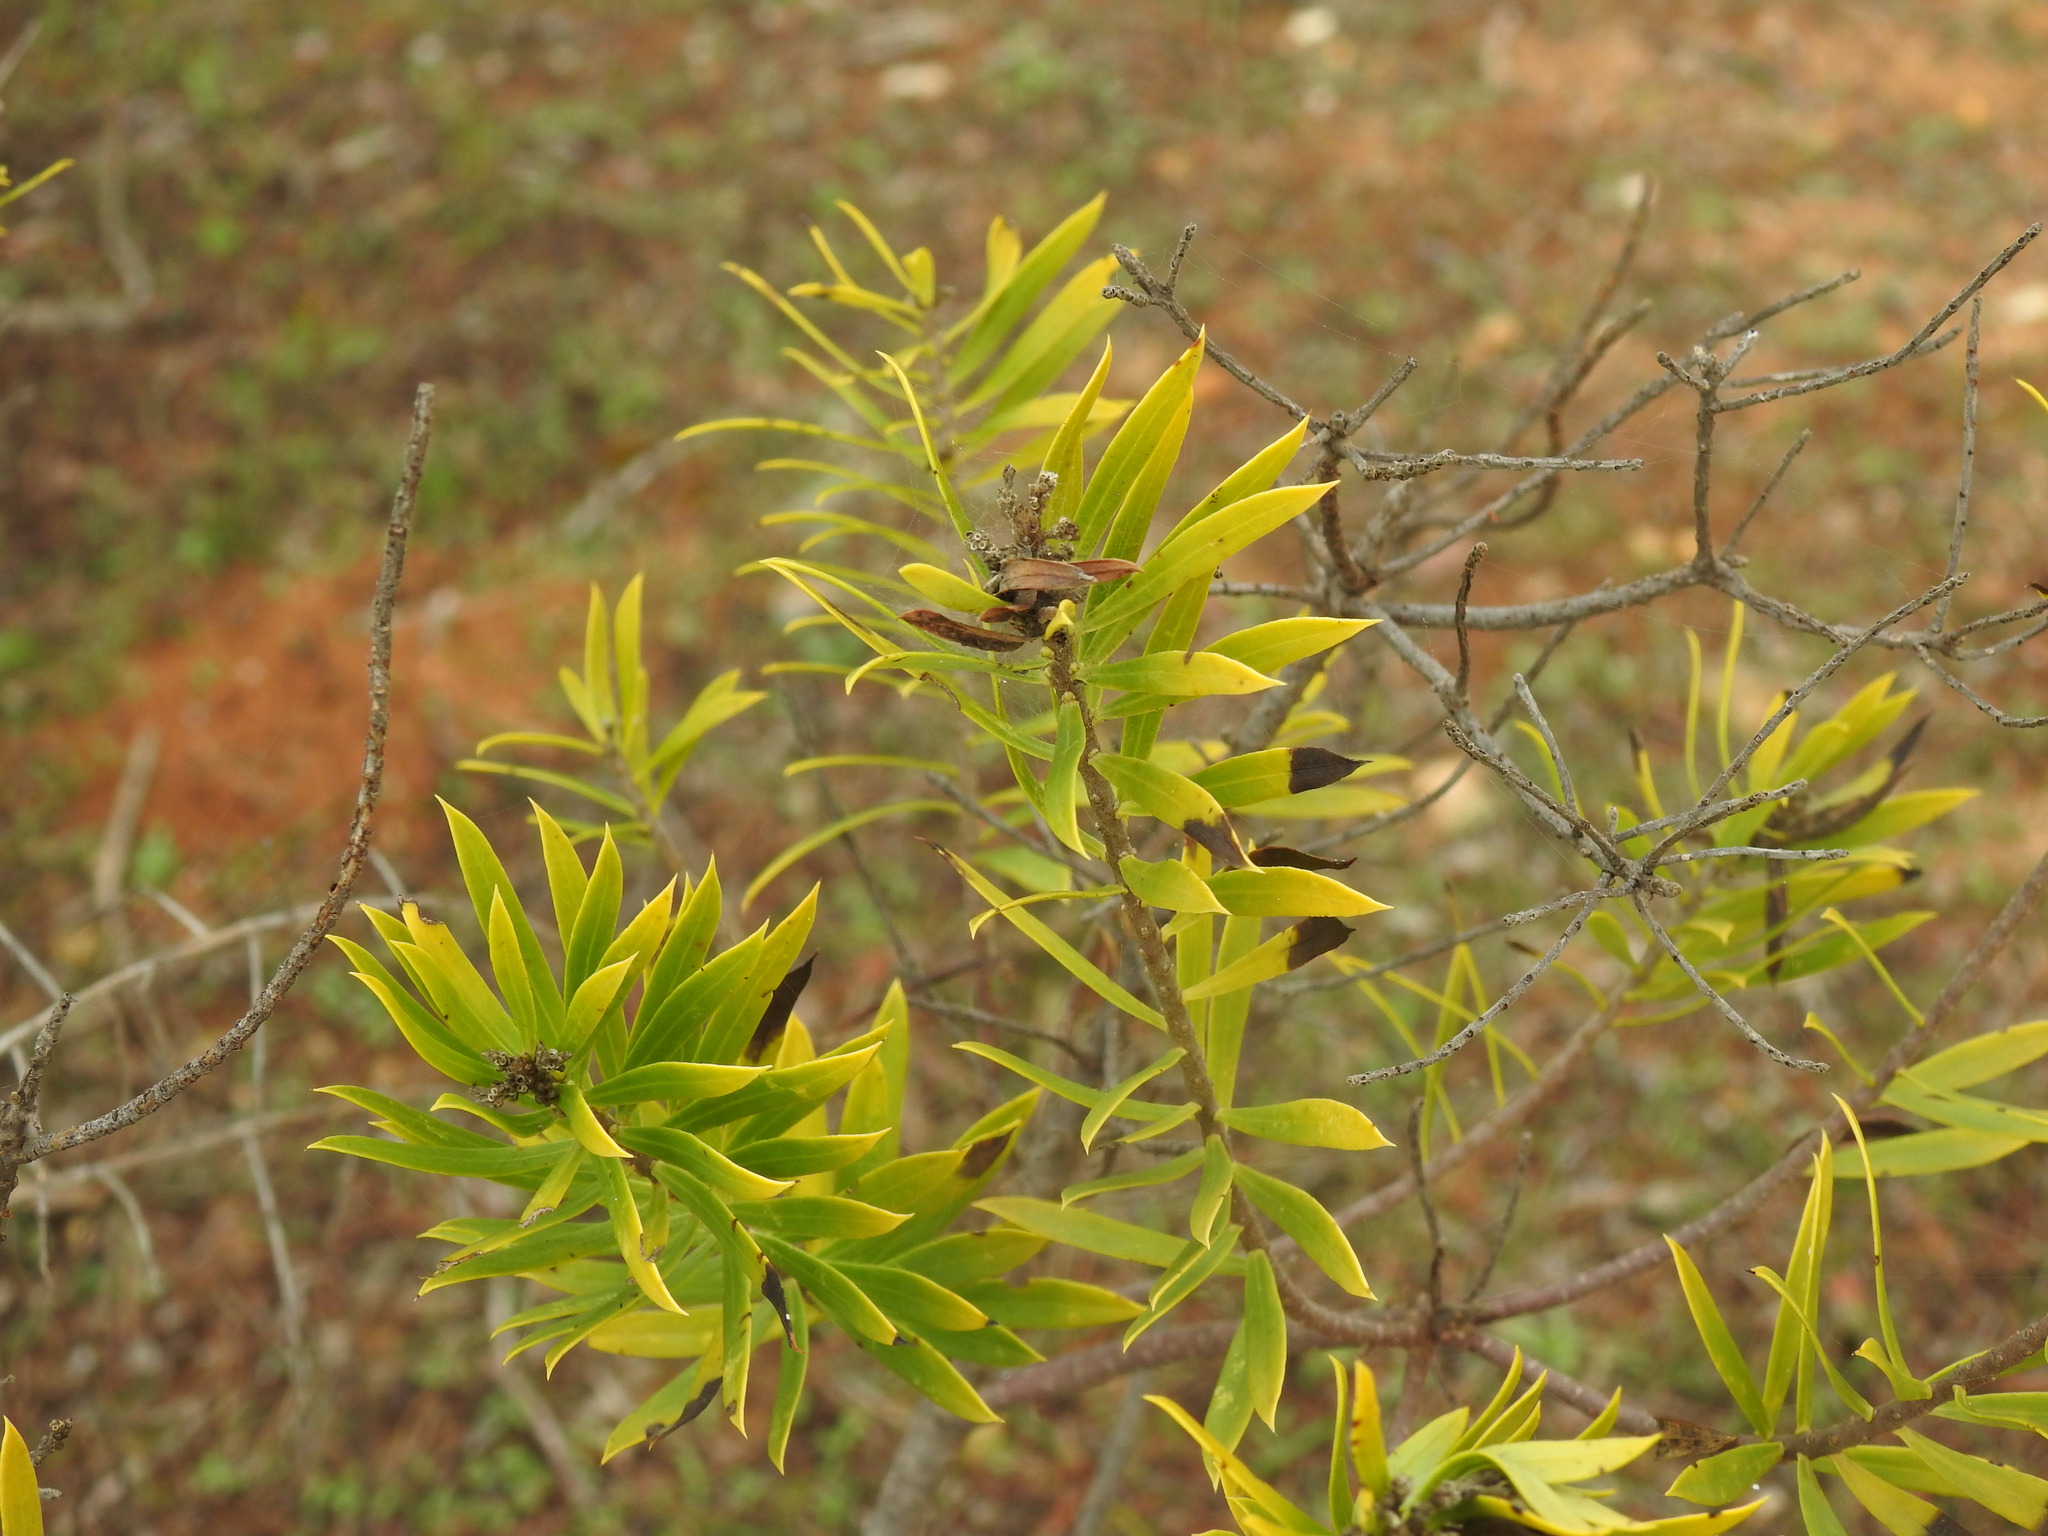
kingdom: Plantae
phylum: Tracheophyta
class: Magnoliopsida
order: Malvales
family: Thymelaeaceae
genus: Daphne
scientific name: Daphne gnidium
